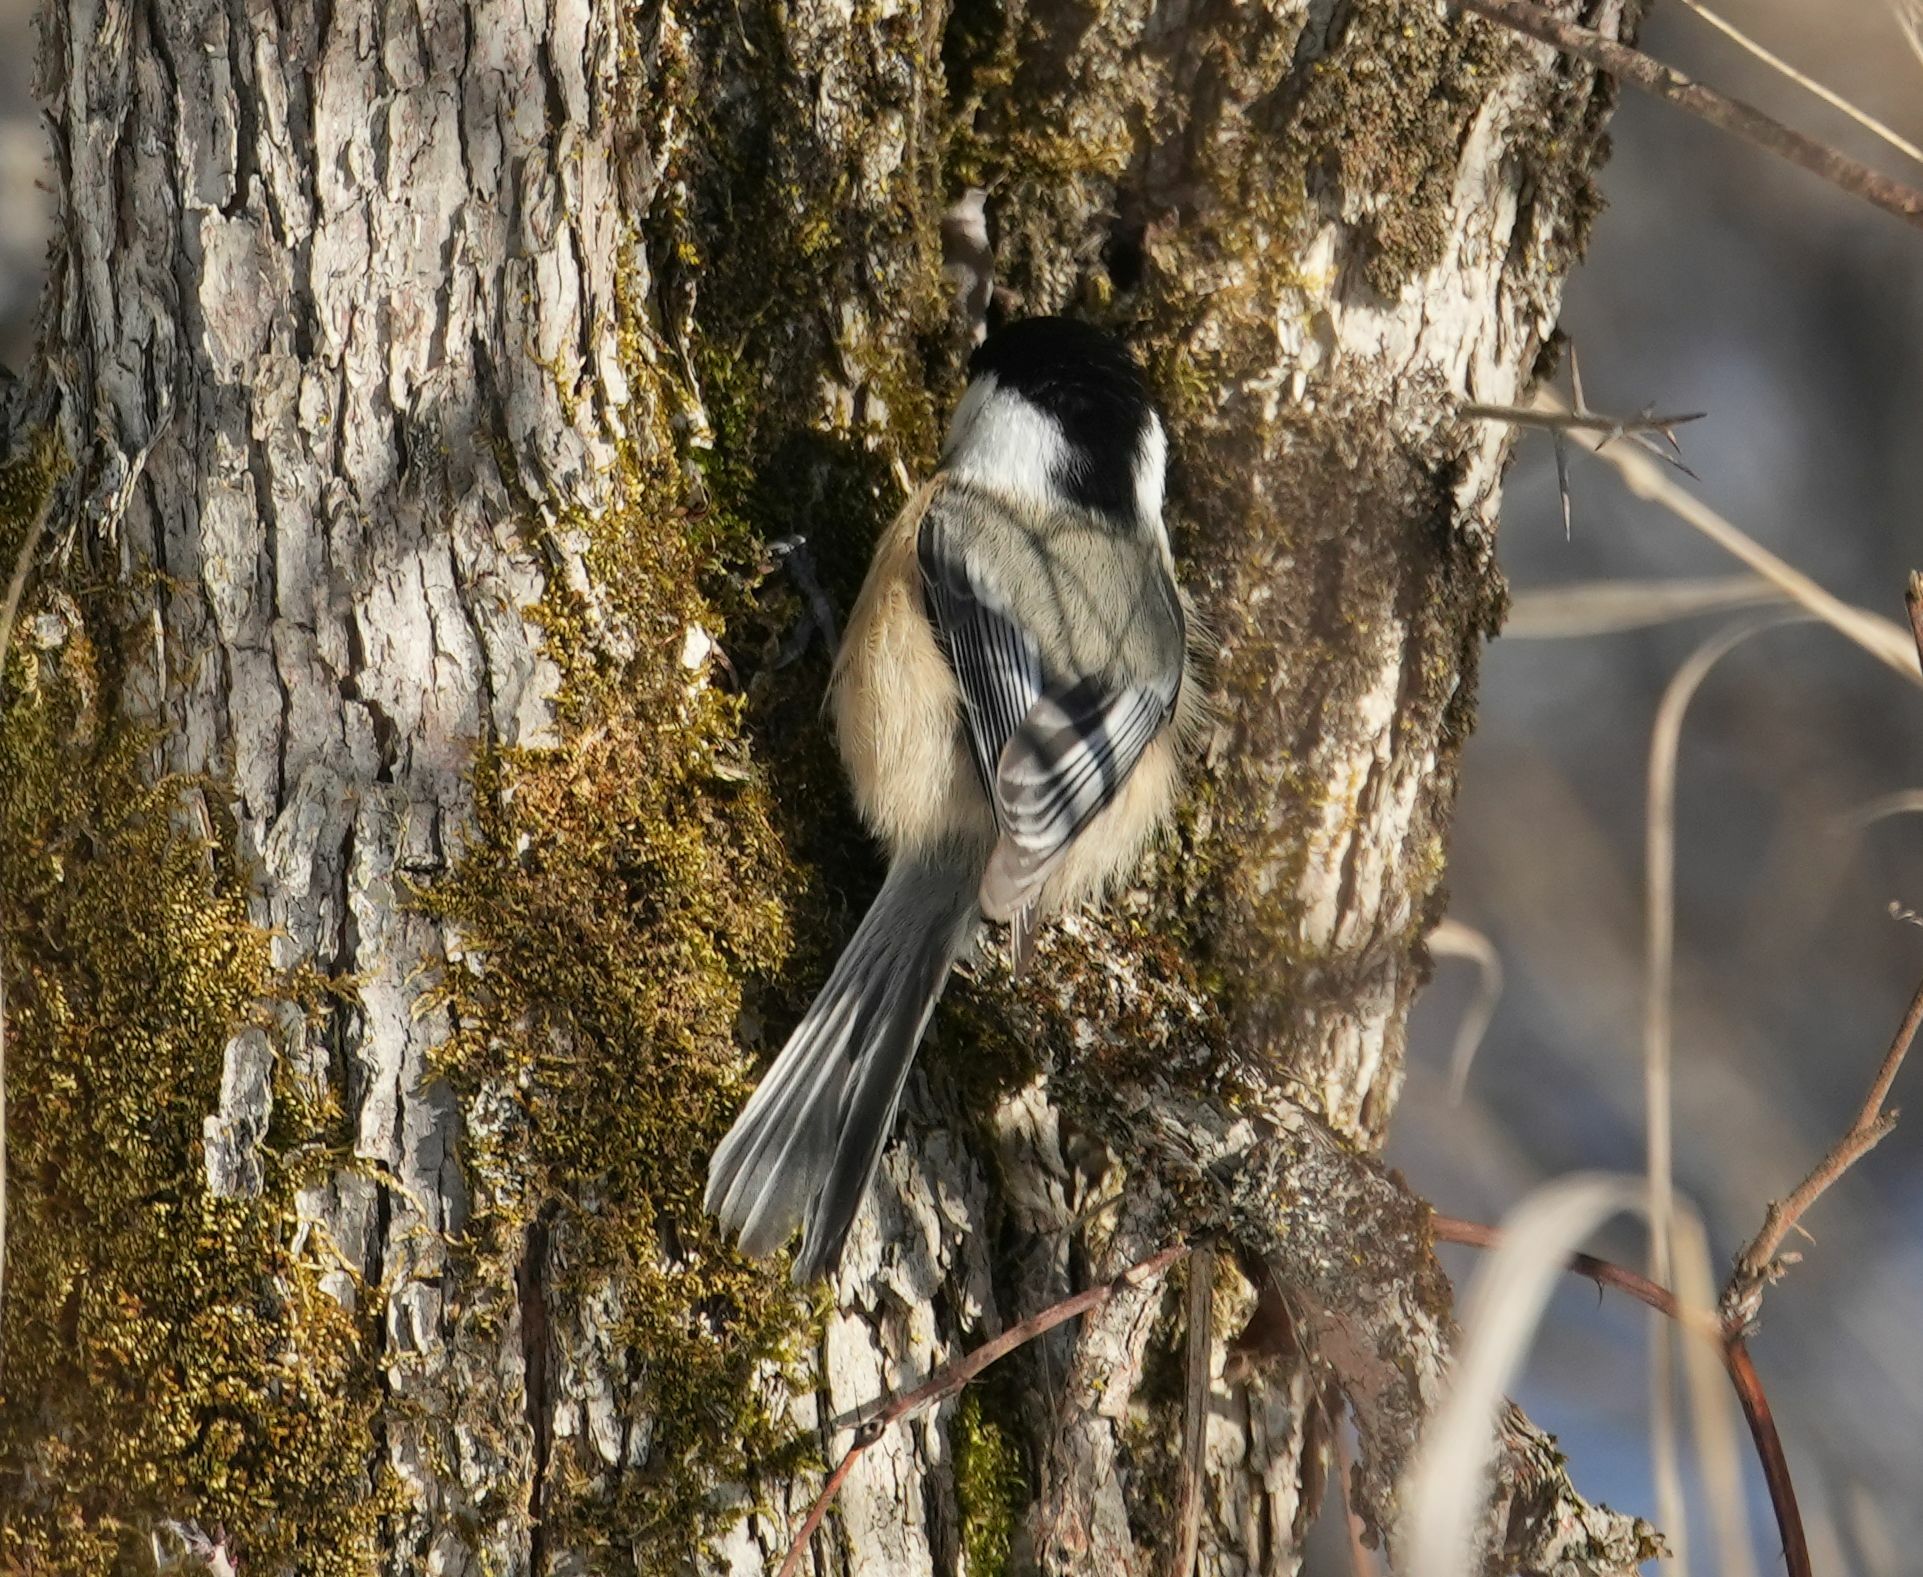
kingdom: Animalia
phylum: Chordata
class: Aves
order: Passeriformes
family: Paridae
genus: Poecile
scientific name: Poecile atricapillus
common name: Black-capped chickadee
